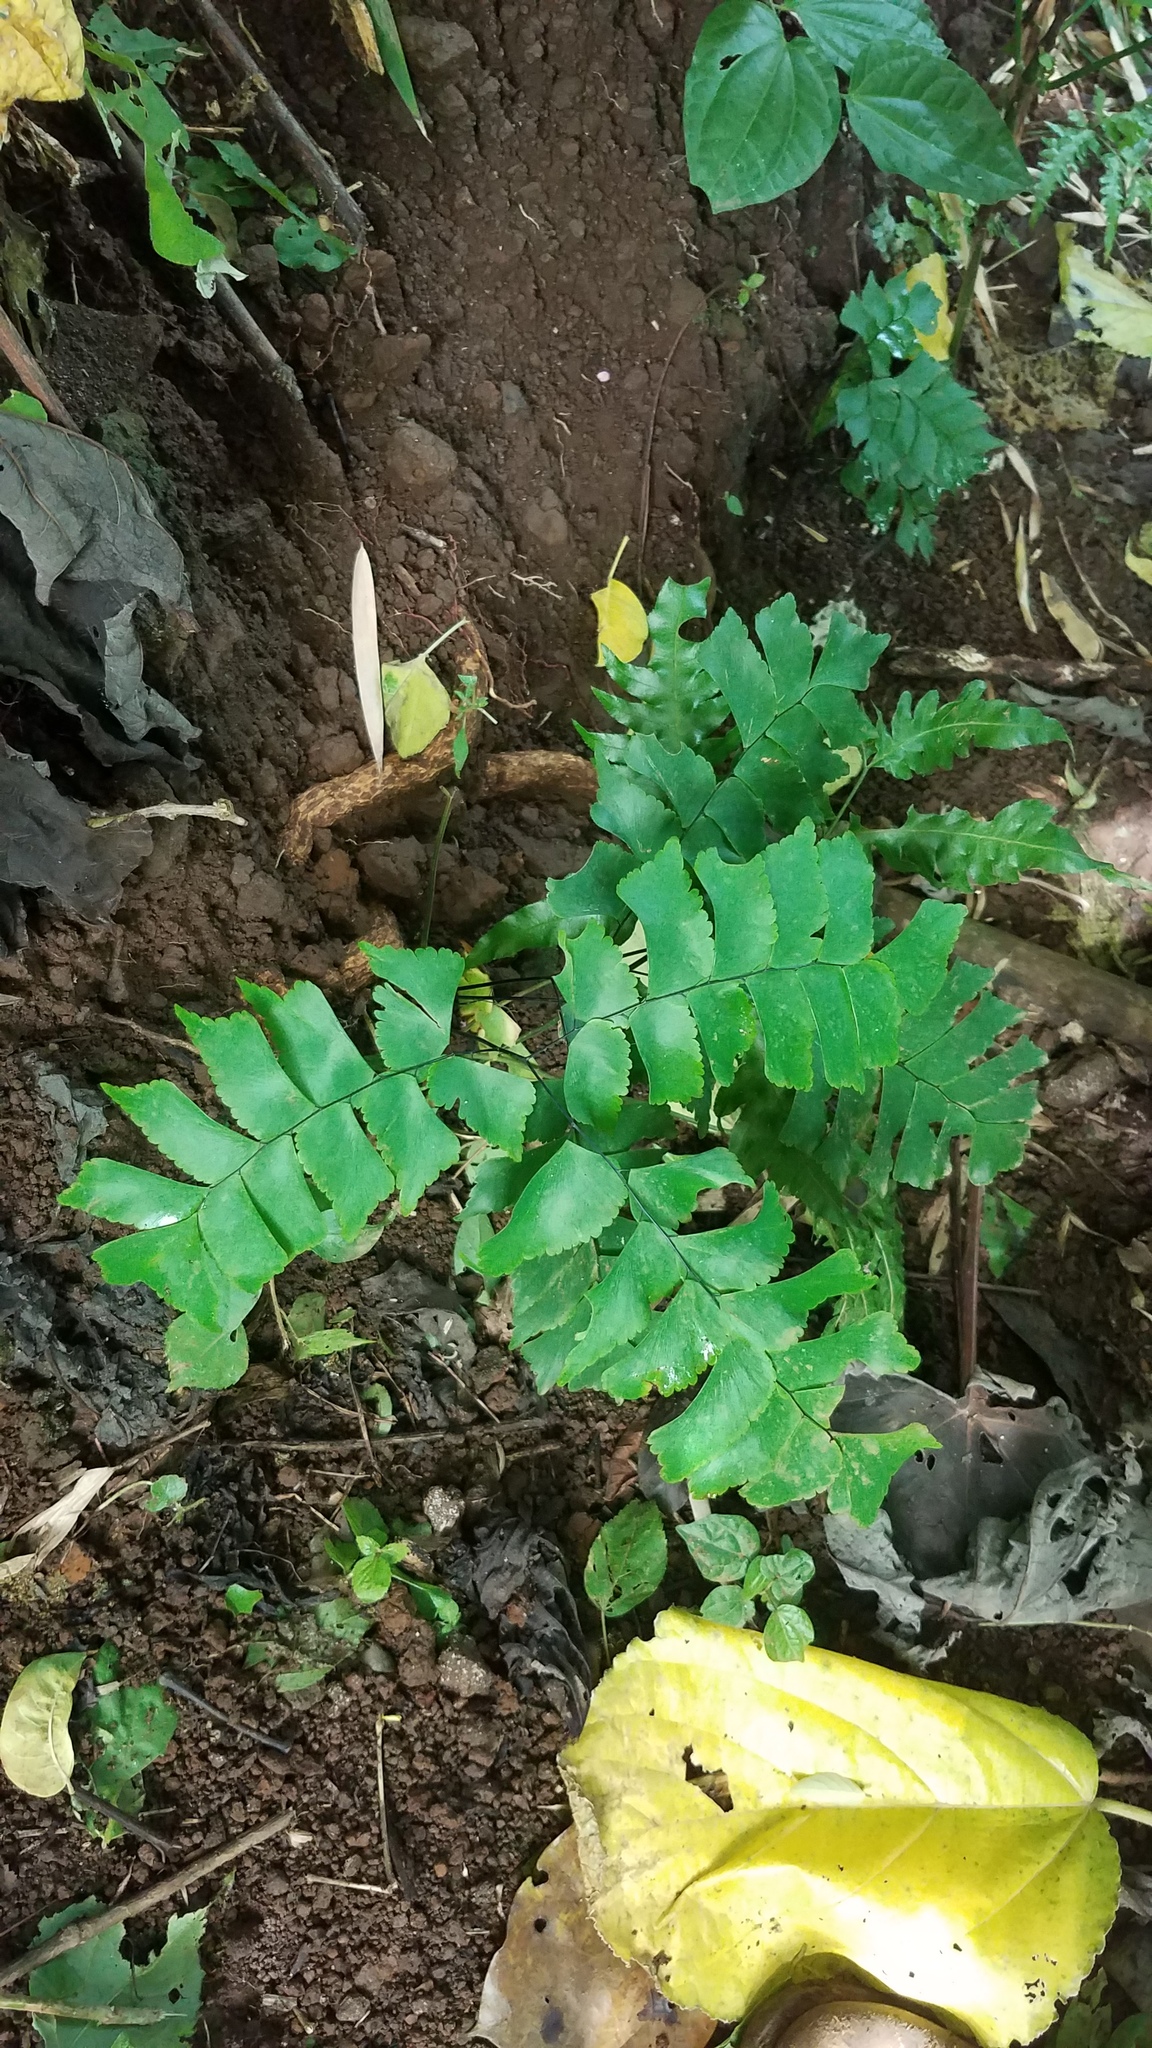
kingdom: Plantae
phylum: Tracheophyta
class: Polypodiopsida
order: Polypodiales
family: Pteridaceae
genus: Adiantum
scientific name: Adiantum trapeziforme
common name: Diamond maidenhair
